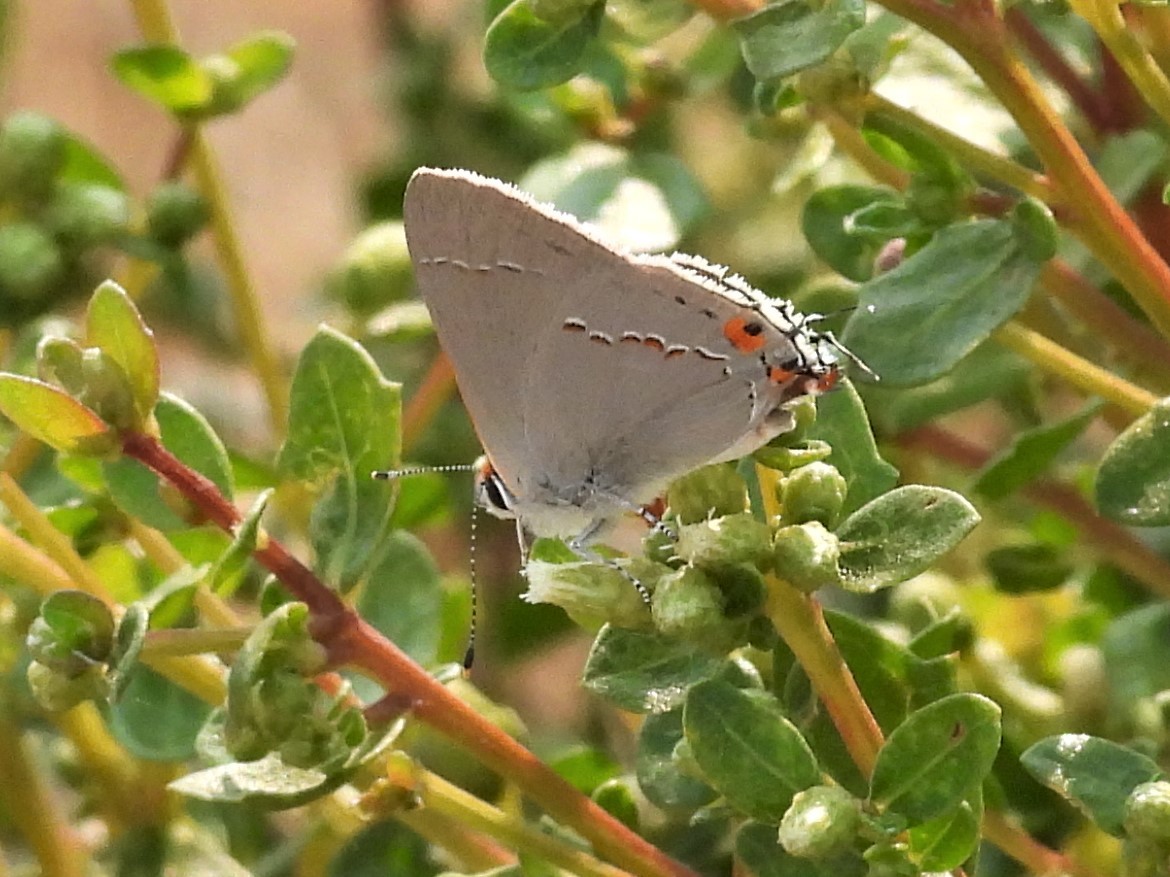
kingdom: Animalia
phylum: Arthropoda
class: Insecta
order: Lepidoptera
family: Lycaenidae
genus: Strymon
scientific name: Strymon melinus
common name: Gray hairstreak
